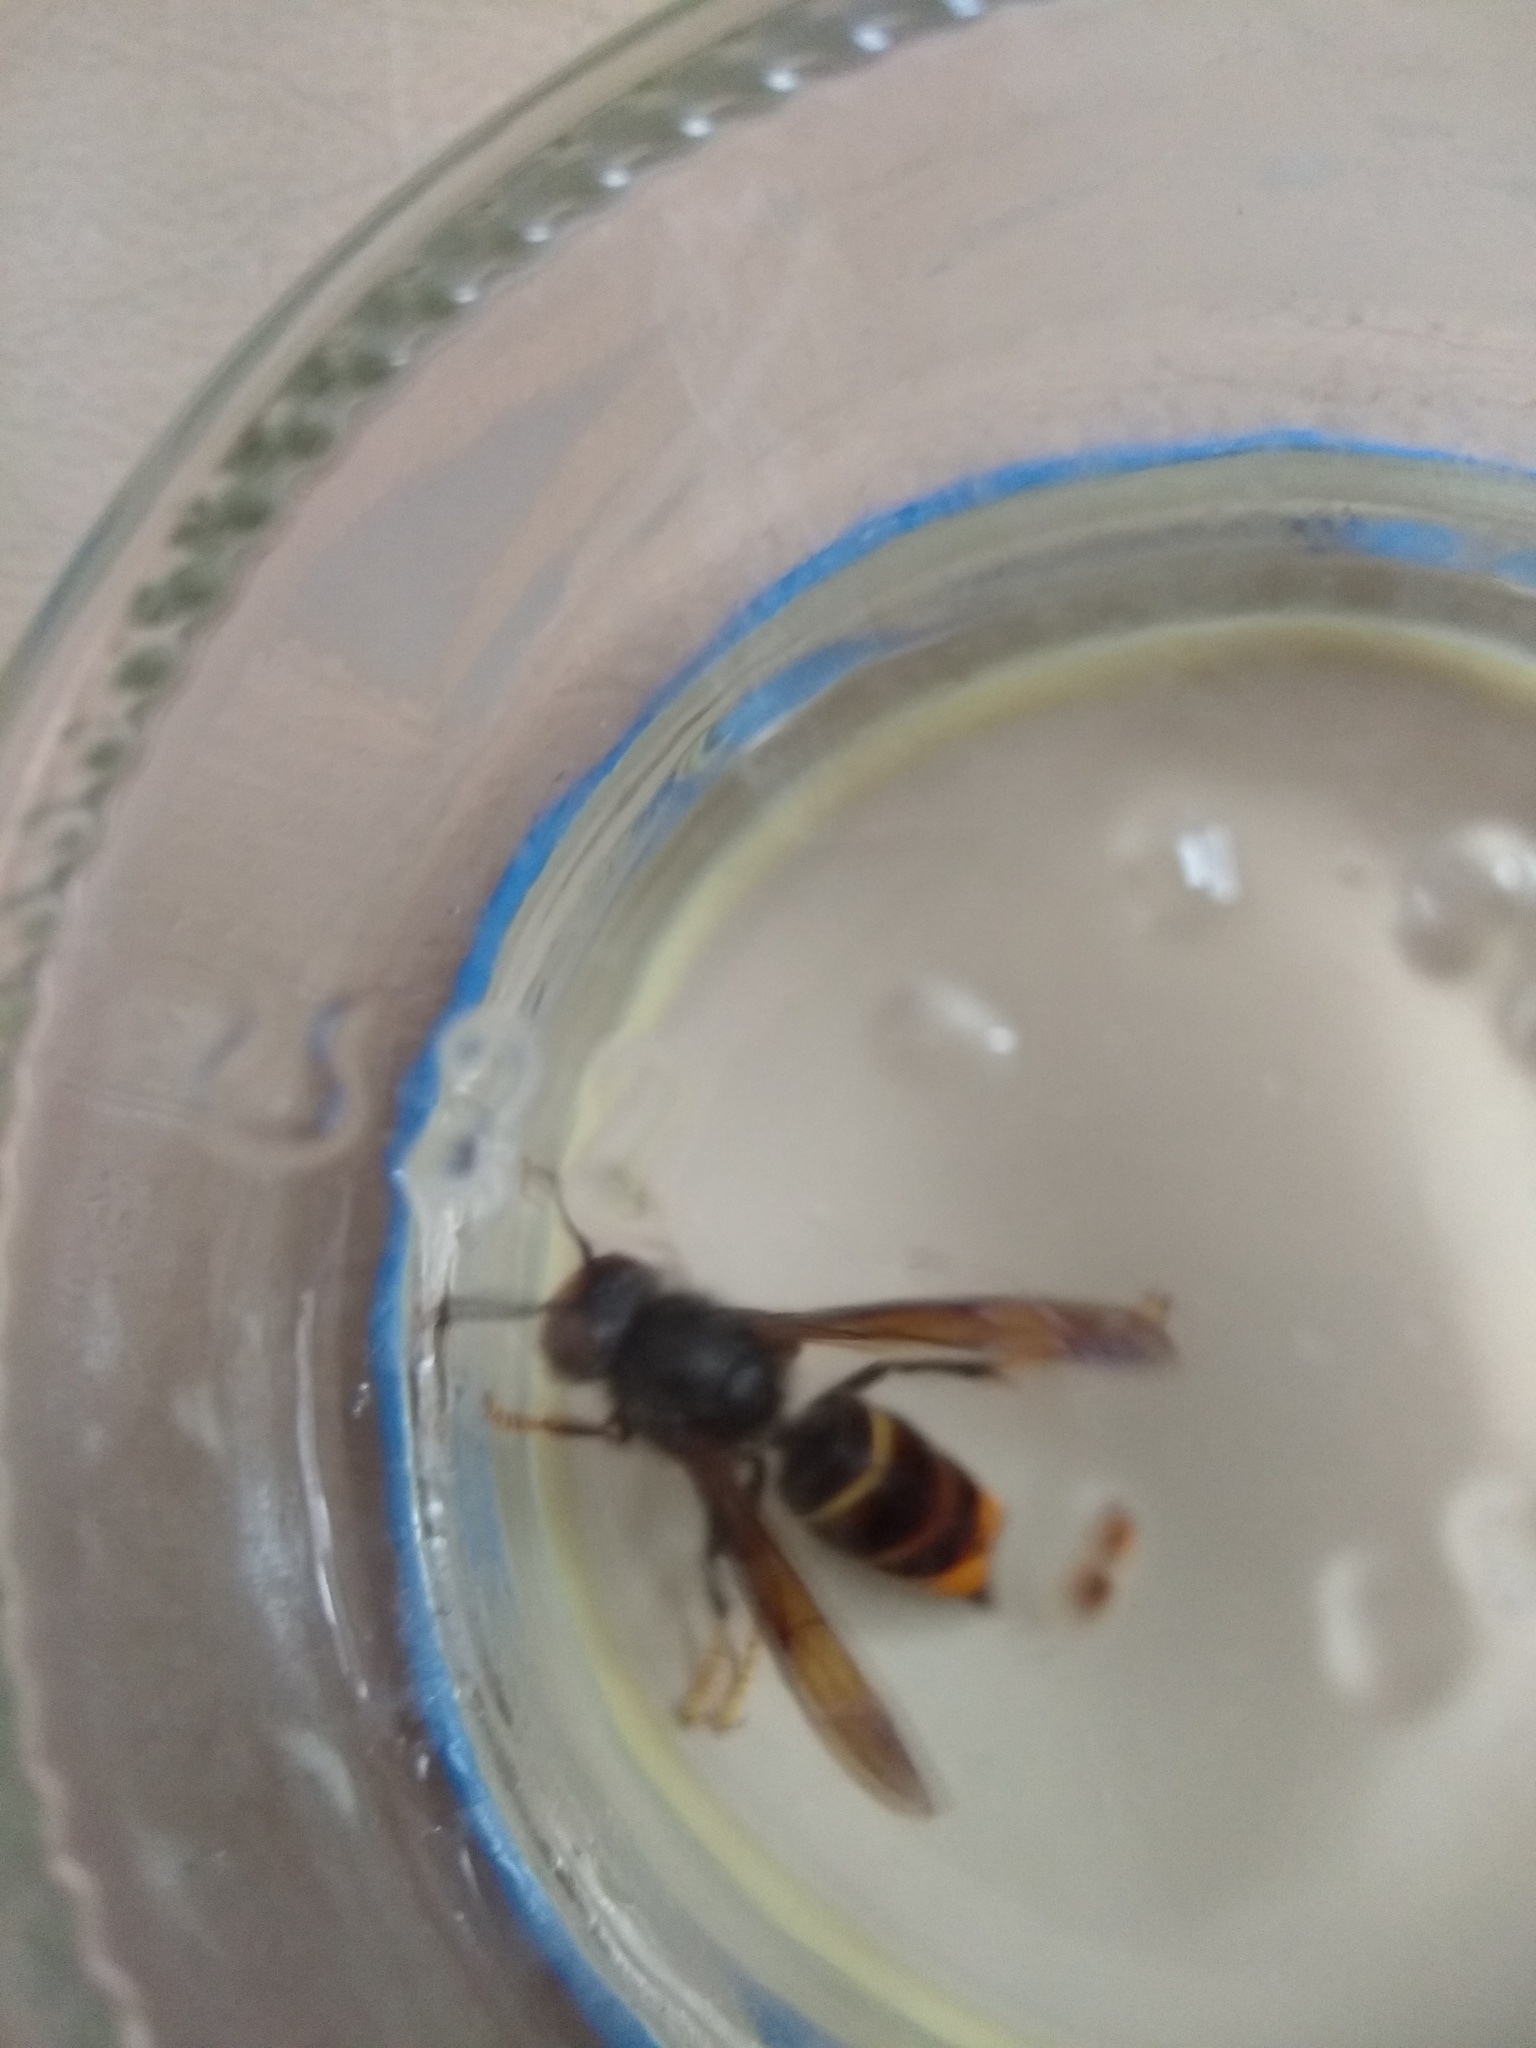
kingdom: Animalia
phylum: Arthropoda
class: Insecta
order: Hymenoptera
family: Vespidae
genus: Vespa
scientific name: Vespa velutina
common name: Asian hornet
